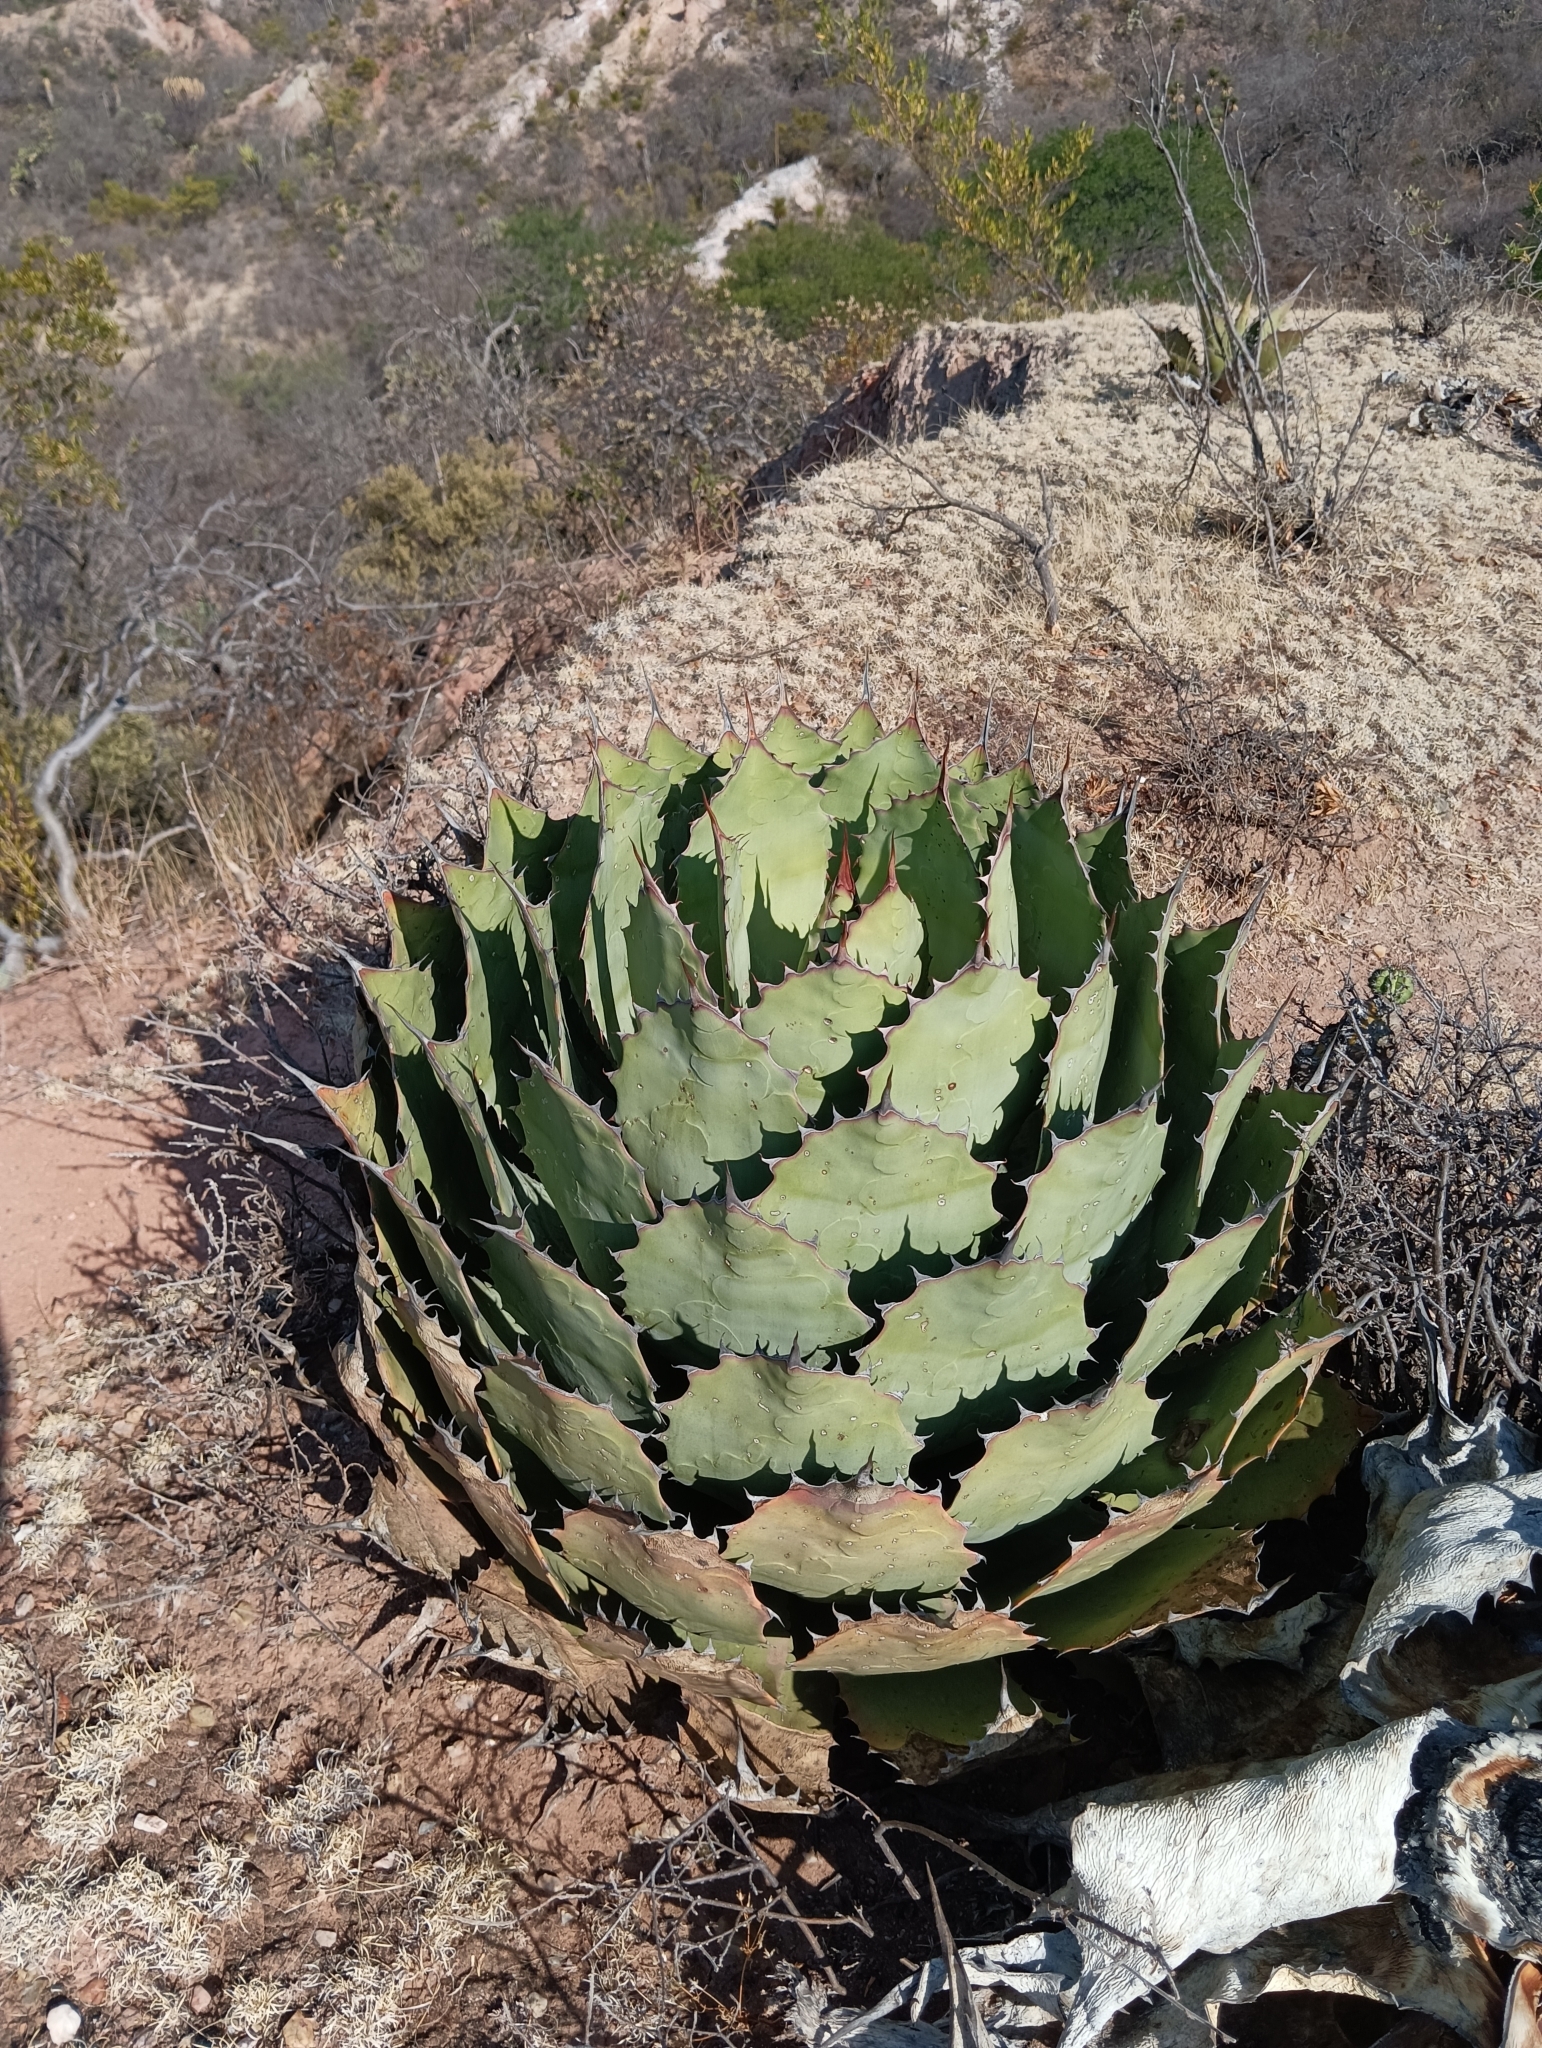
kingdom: Plantae
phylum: Tracheophyta
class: Liliopsida
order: Asparagales
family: Asparagaceae
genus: Agave
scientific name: Agave potatorum
